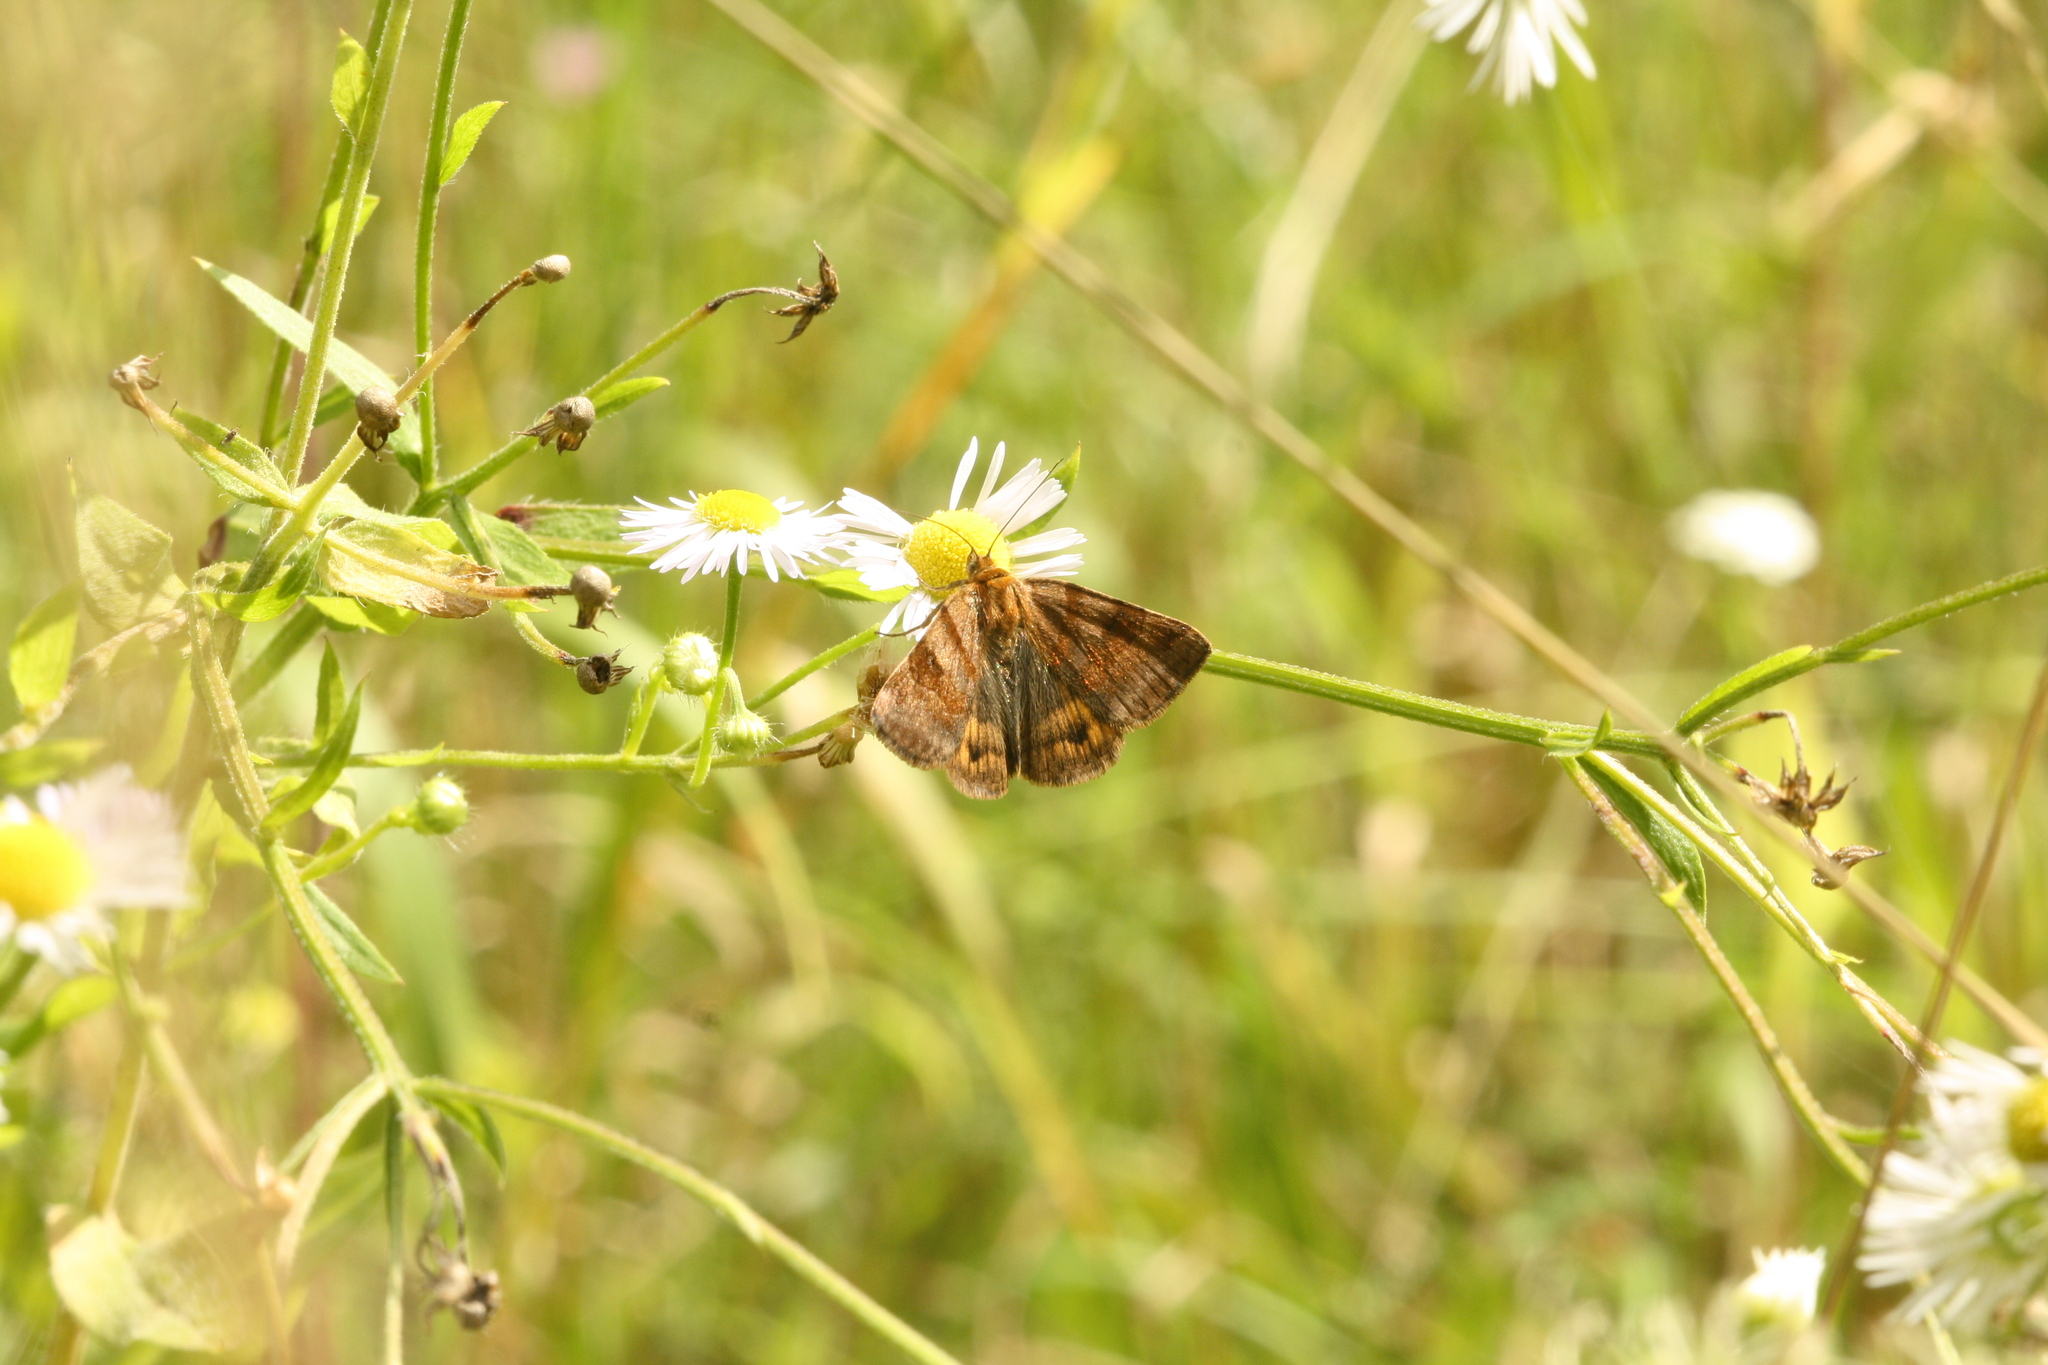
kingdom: Animalia
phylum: Arthropoda
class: Insecta
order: Lepidoptera
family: Erebidae
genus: Euclidia
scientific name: Euclidia glyphica
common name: Burnet companion
